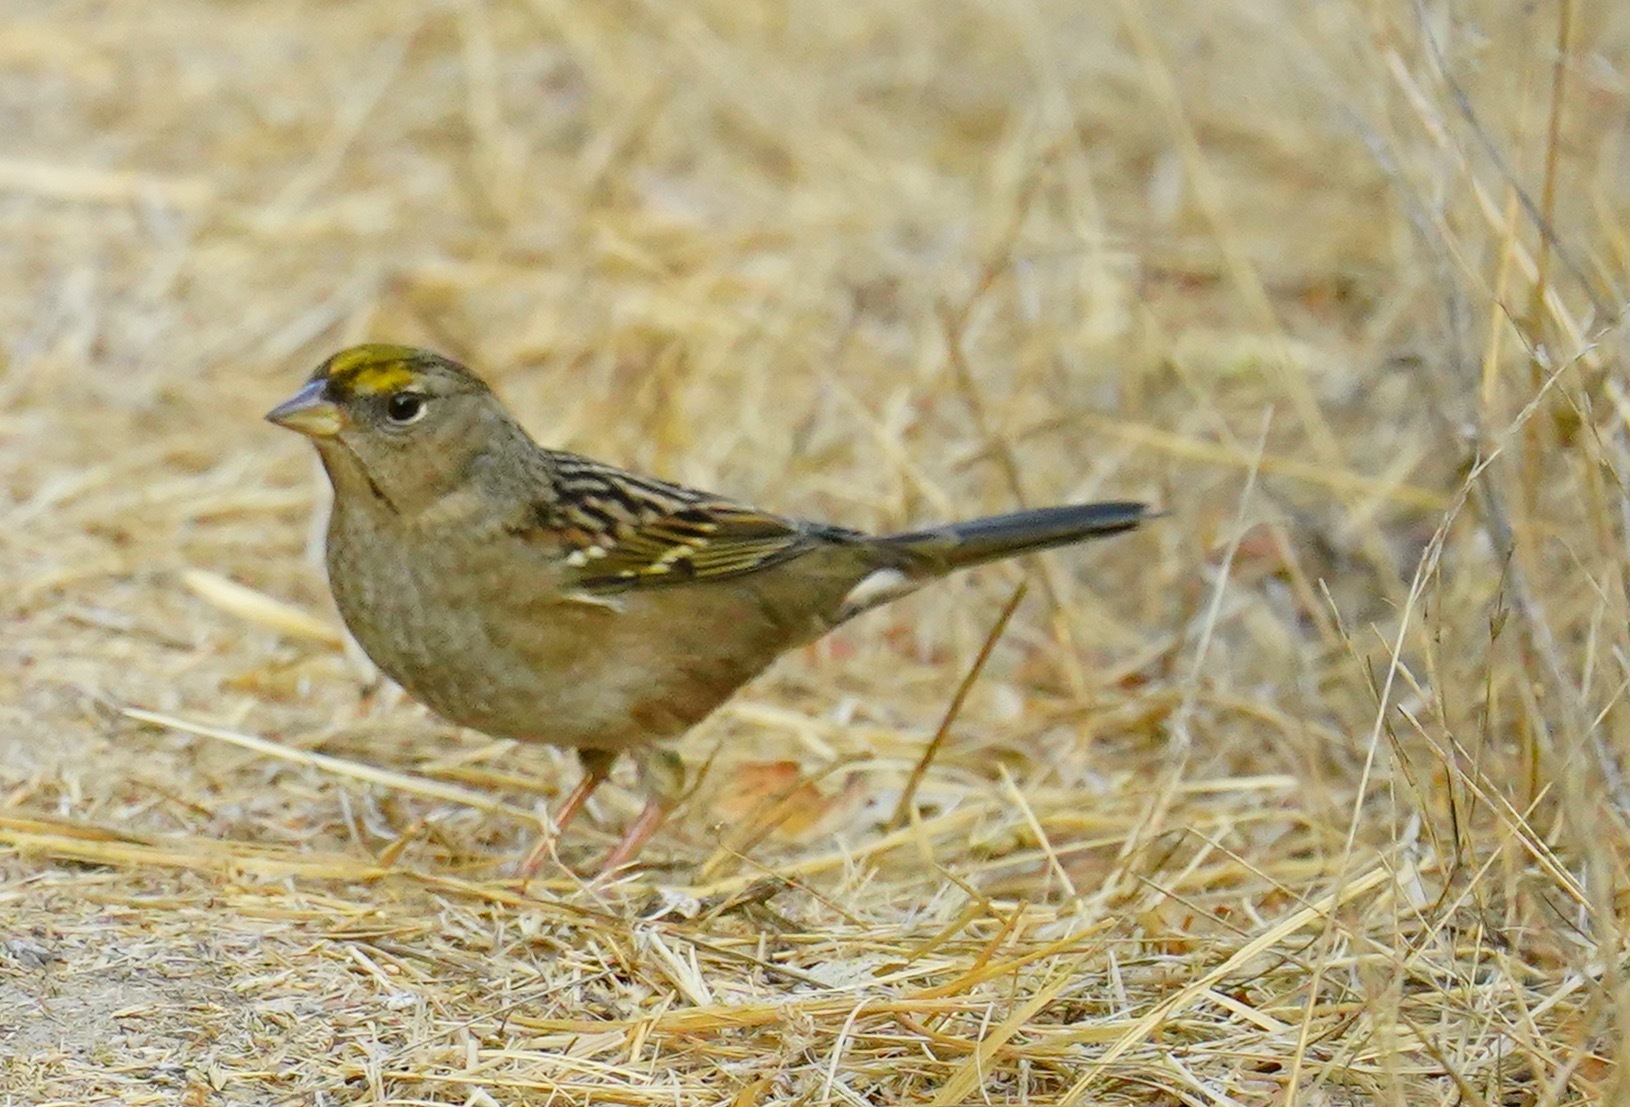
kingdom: Animalia
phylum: Chordata
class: Aves
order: Passeriformes
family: Passerellidae
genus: Zonotrichia
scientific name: Zonotrichia atricapilla
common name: Golden-crowned sparrow
